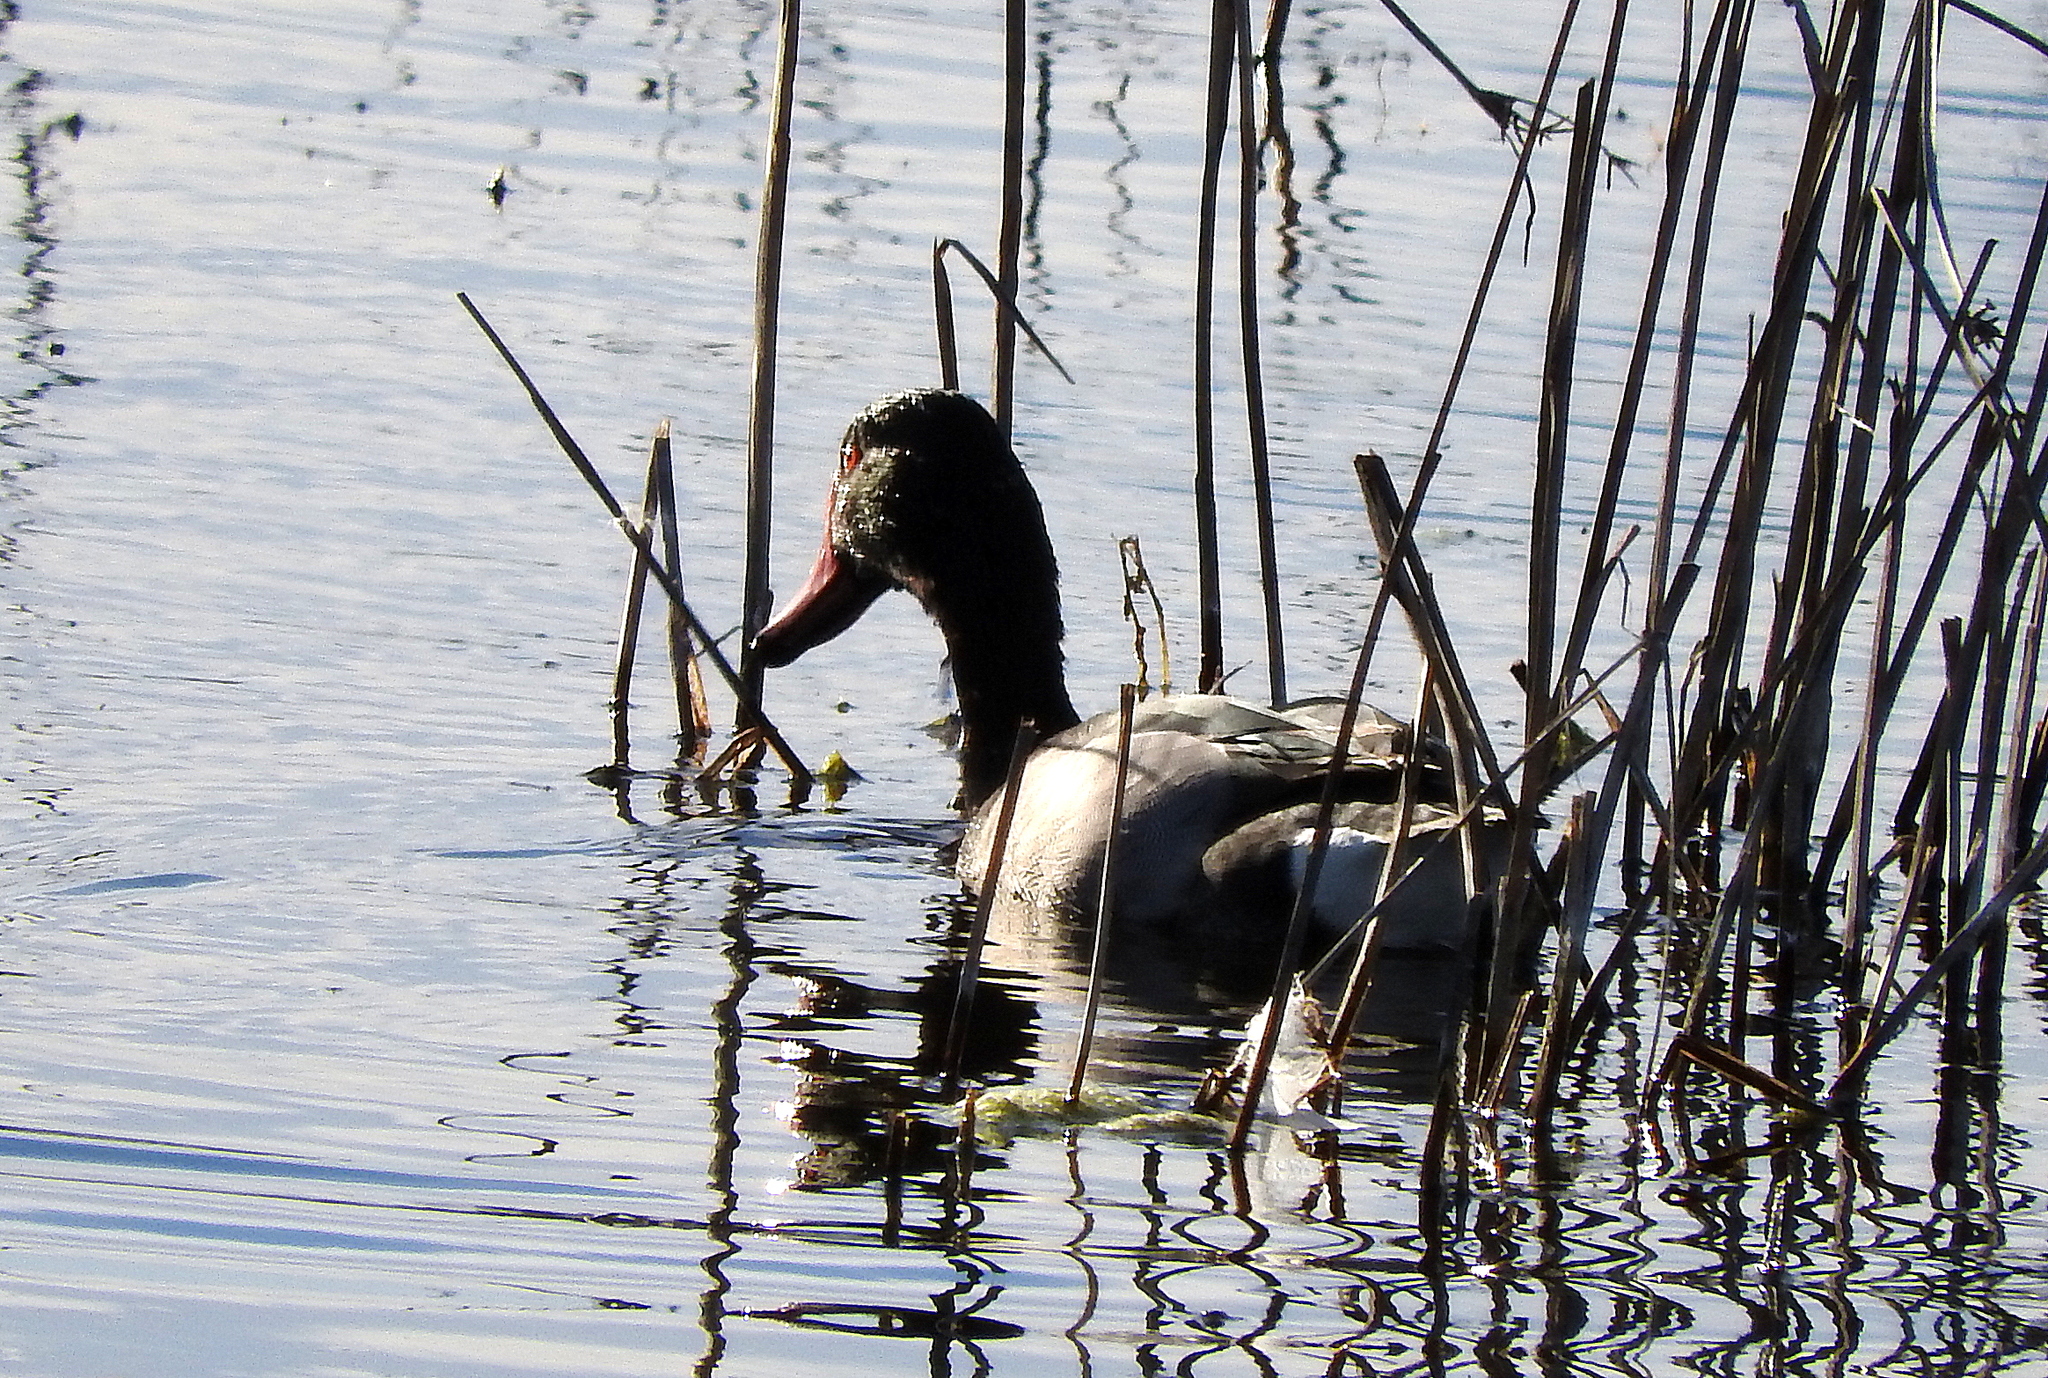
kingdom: Animalia
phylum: Chordata
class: Aves
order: Anseriformes
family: Anatidae
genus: Netta
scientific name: Netta peposaca
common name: Rosy-billed pochard
